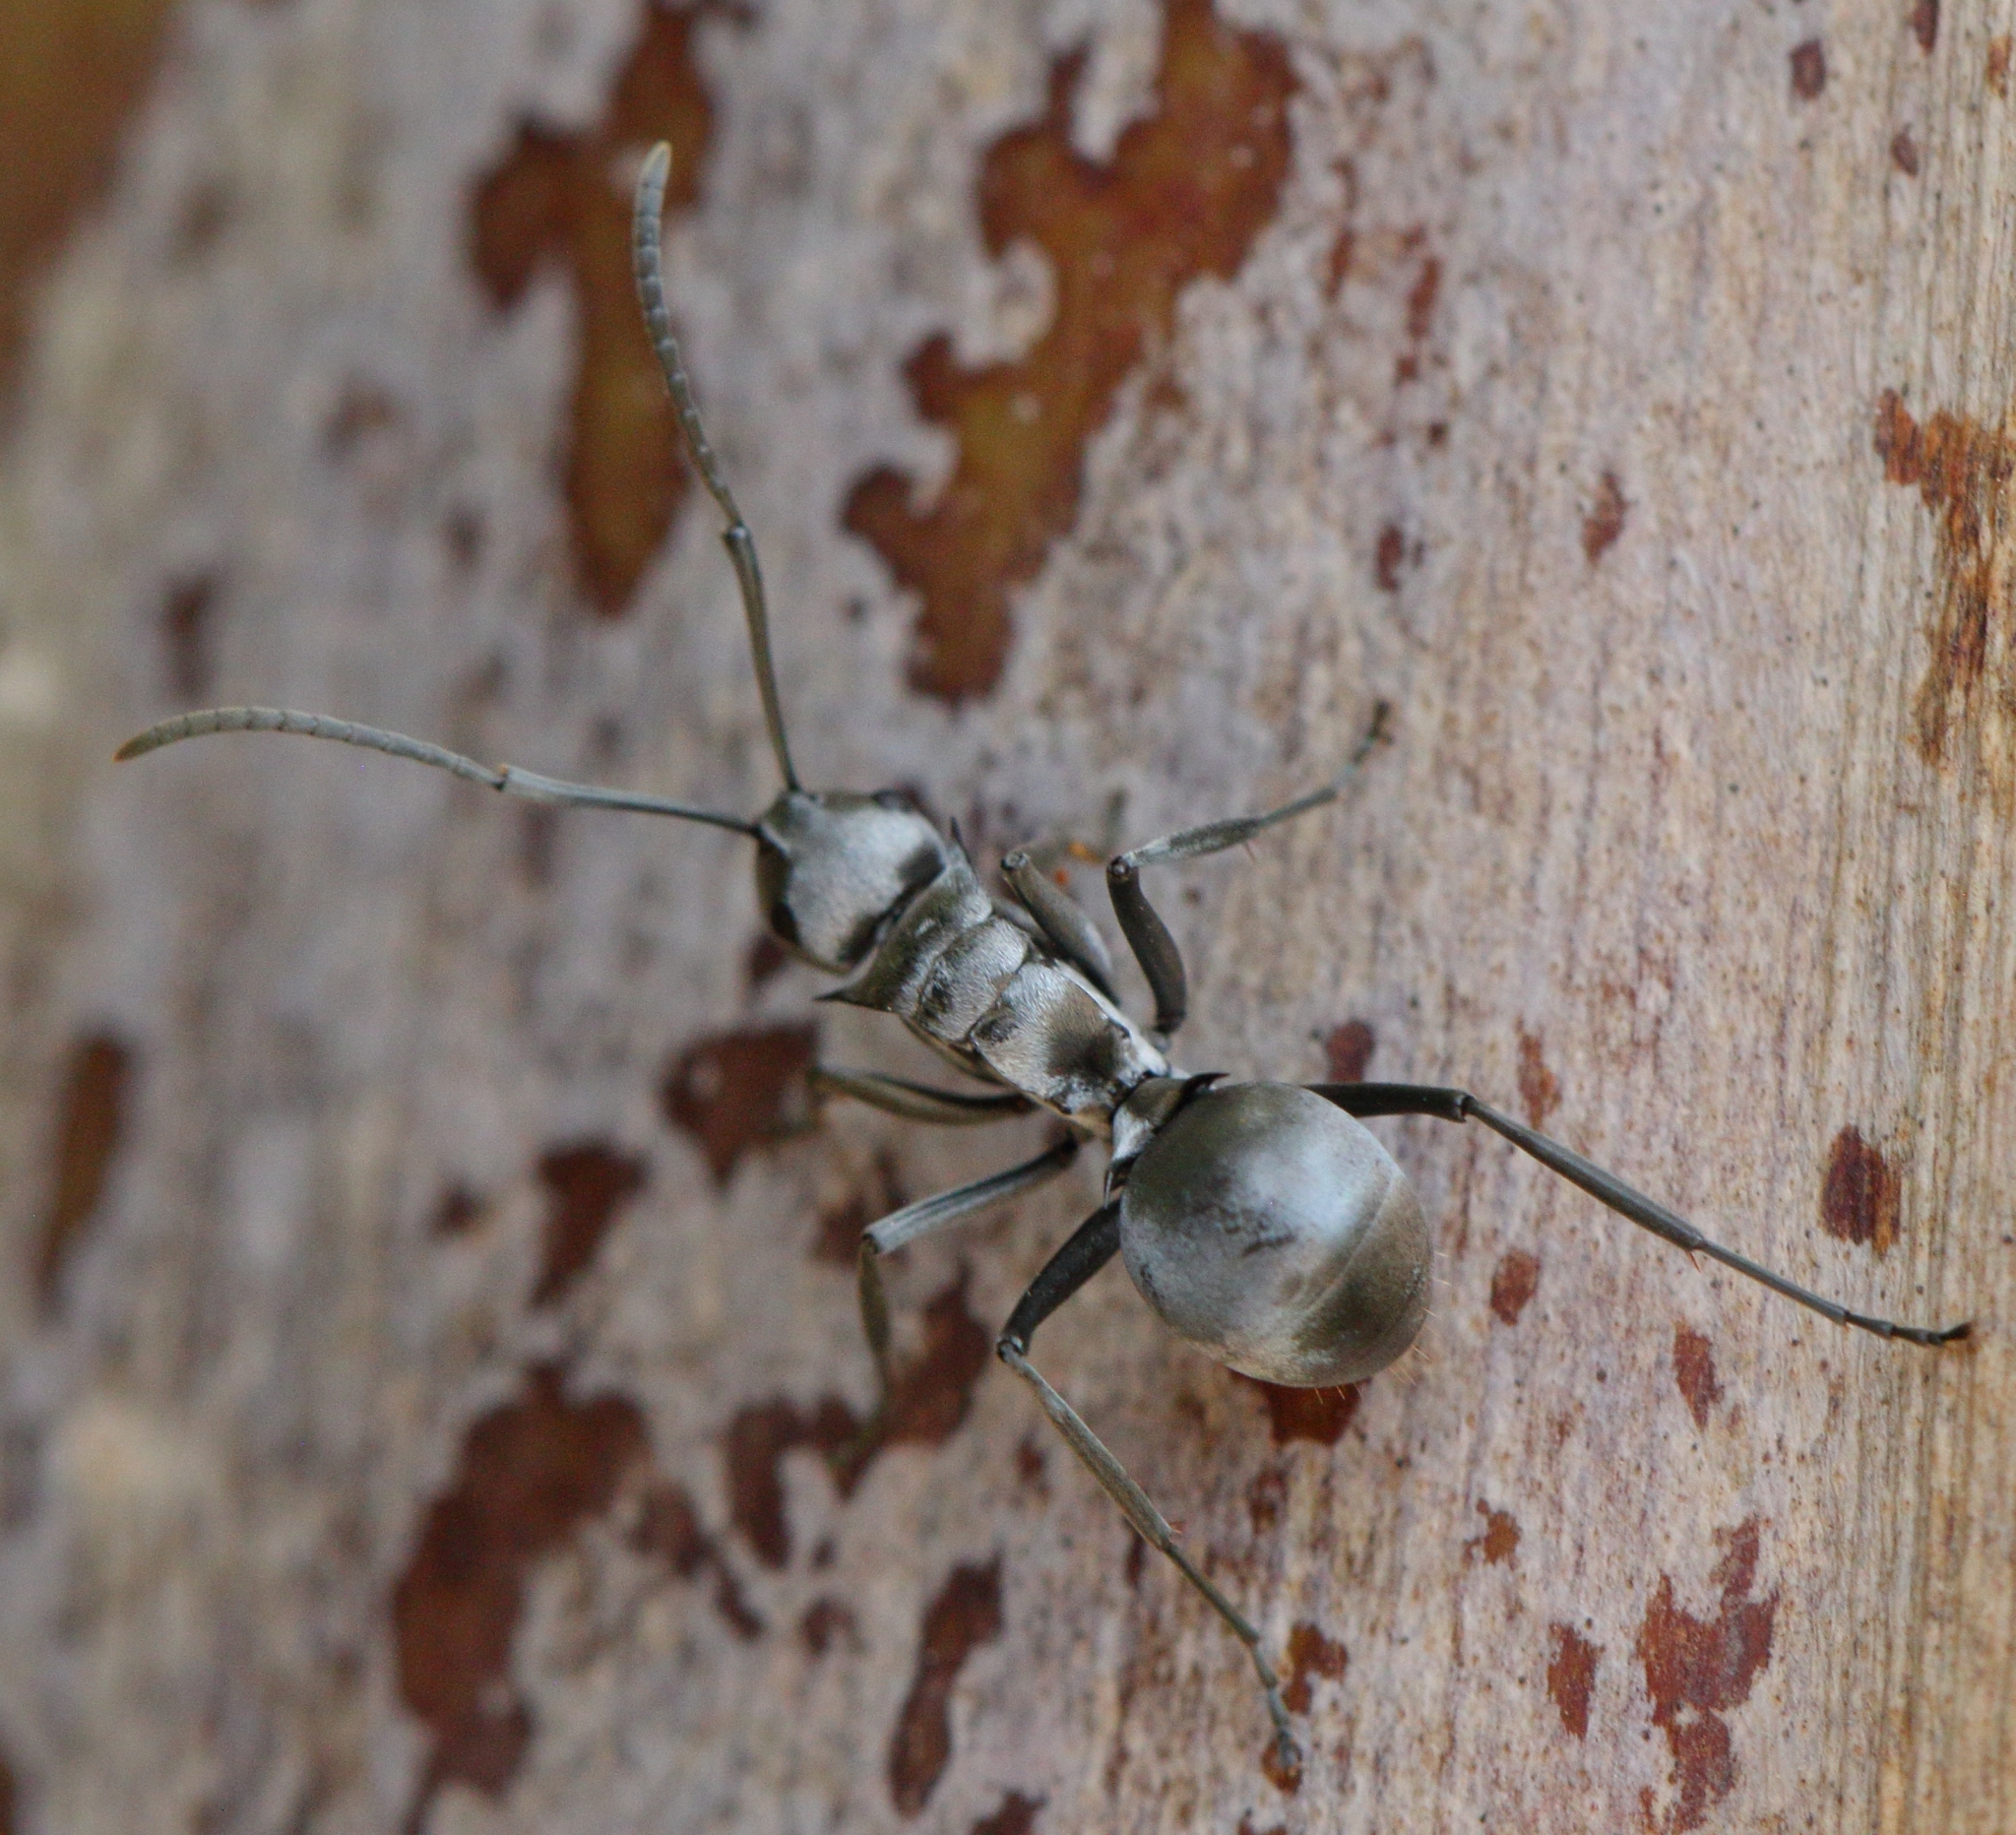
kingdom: Animalia
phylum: Arthropoda
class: Insecta
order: Hymenoptera
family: Formicidae
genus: Polyrhachis
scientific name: Polyrhachis schlueteri
